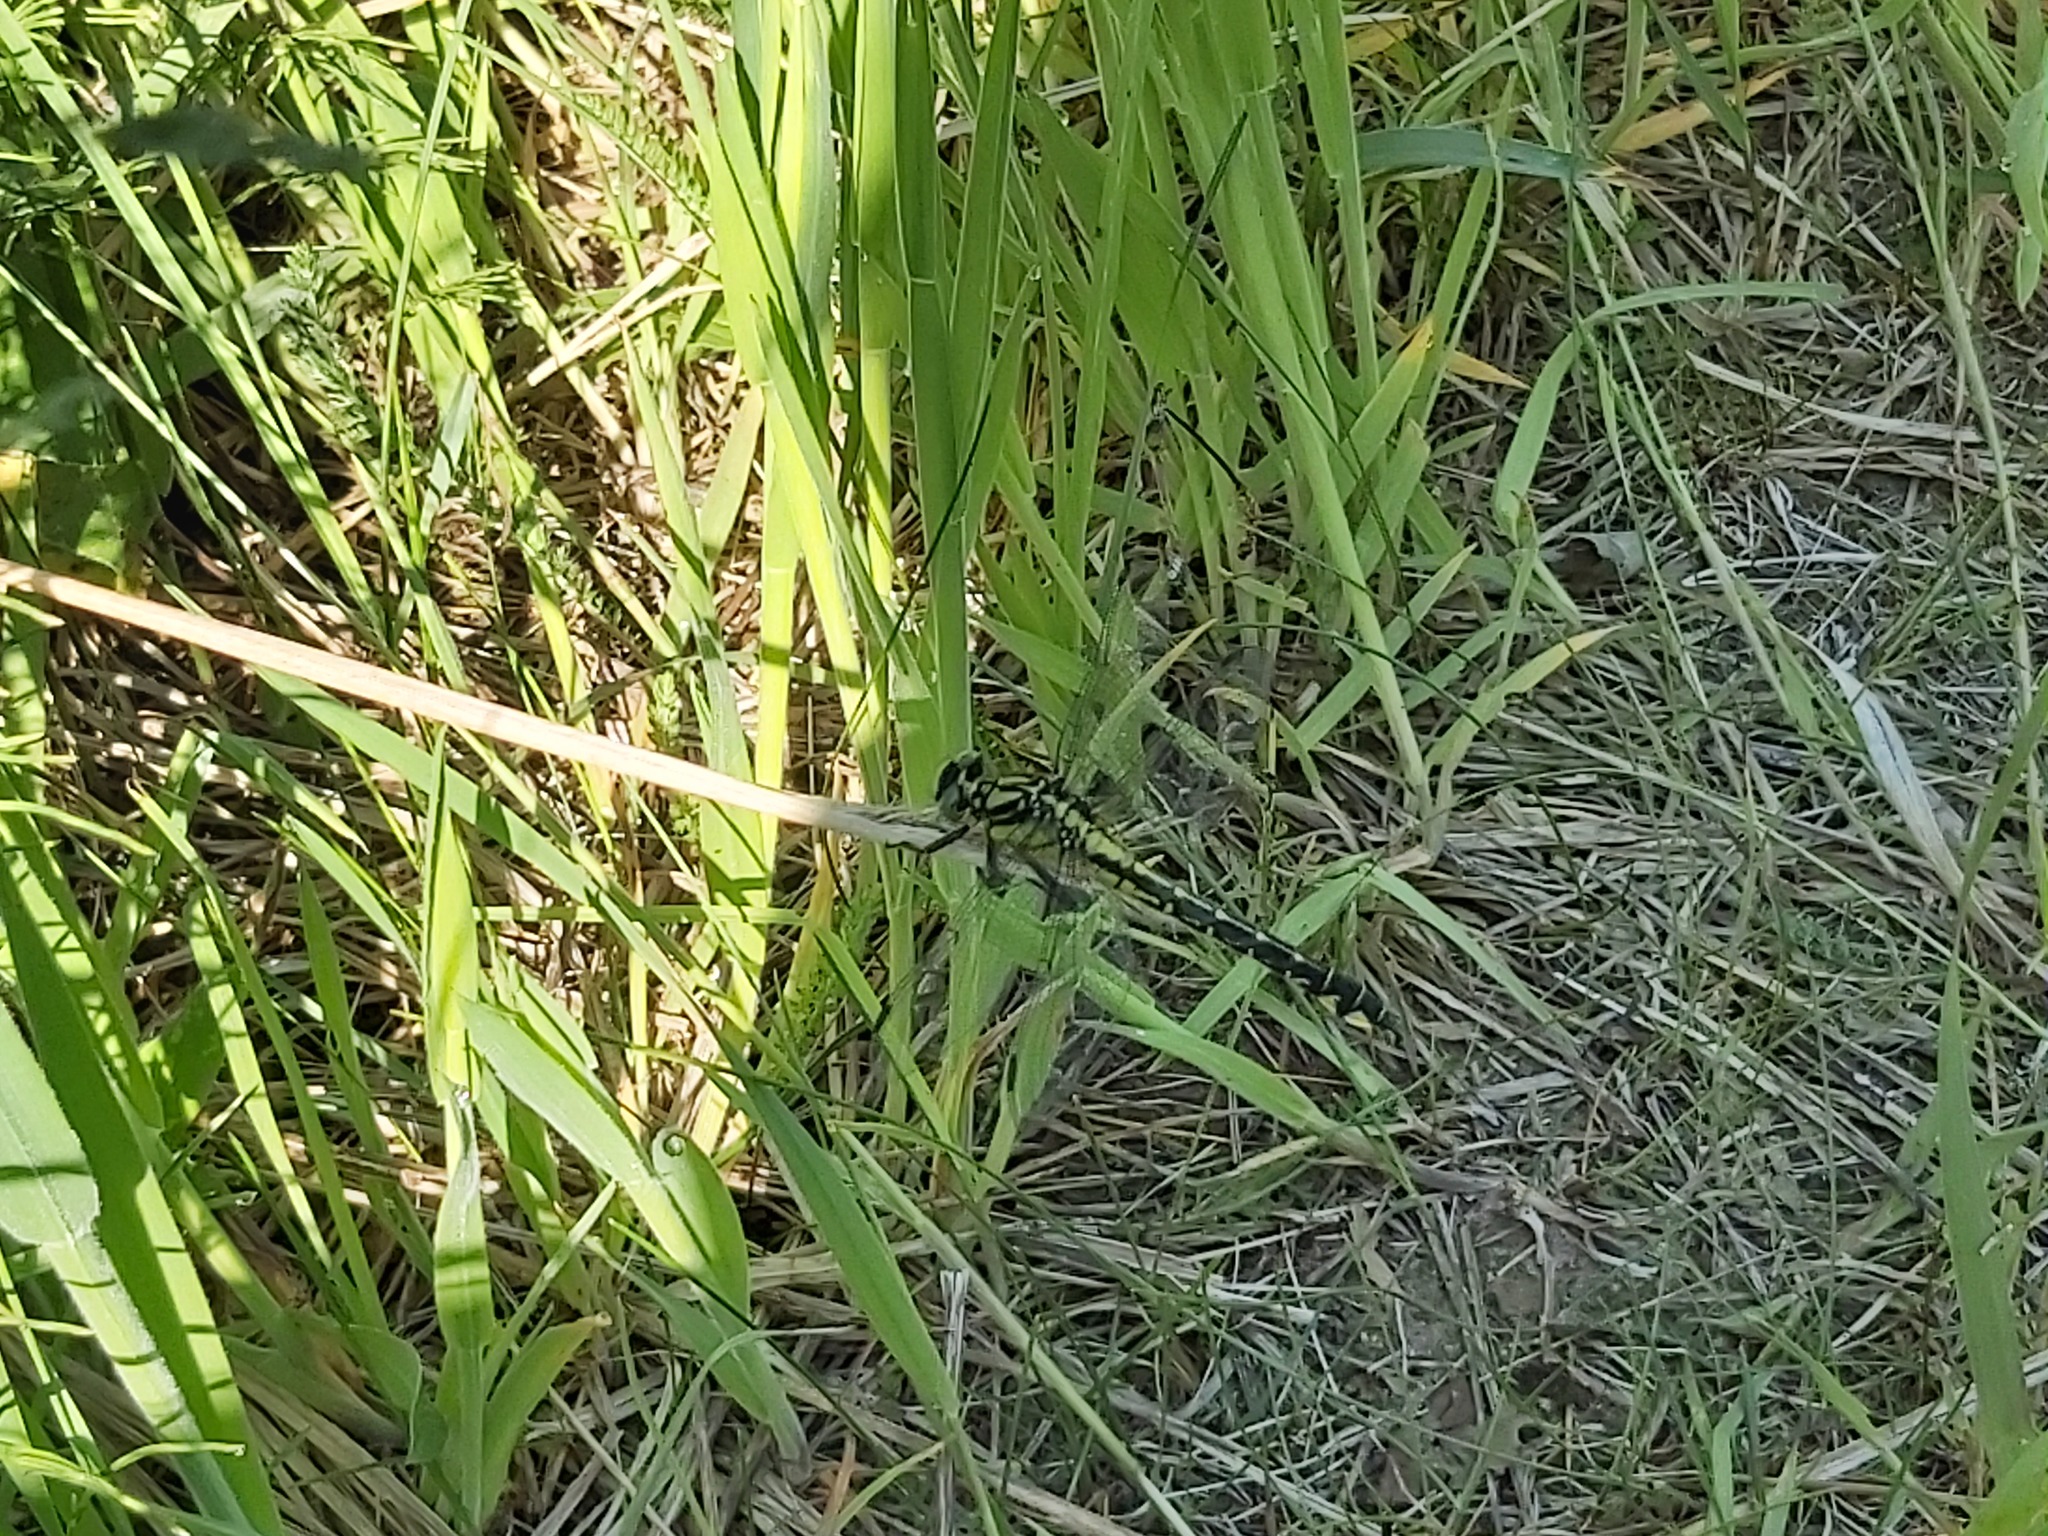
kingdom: Animalia
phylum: Arthropoda
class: Insecta
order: Odonata
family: Gomphidae
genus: Gomphus
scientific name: Gomphus vulgatissimus
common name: Club-tailed dragonfly
